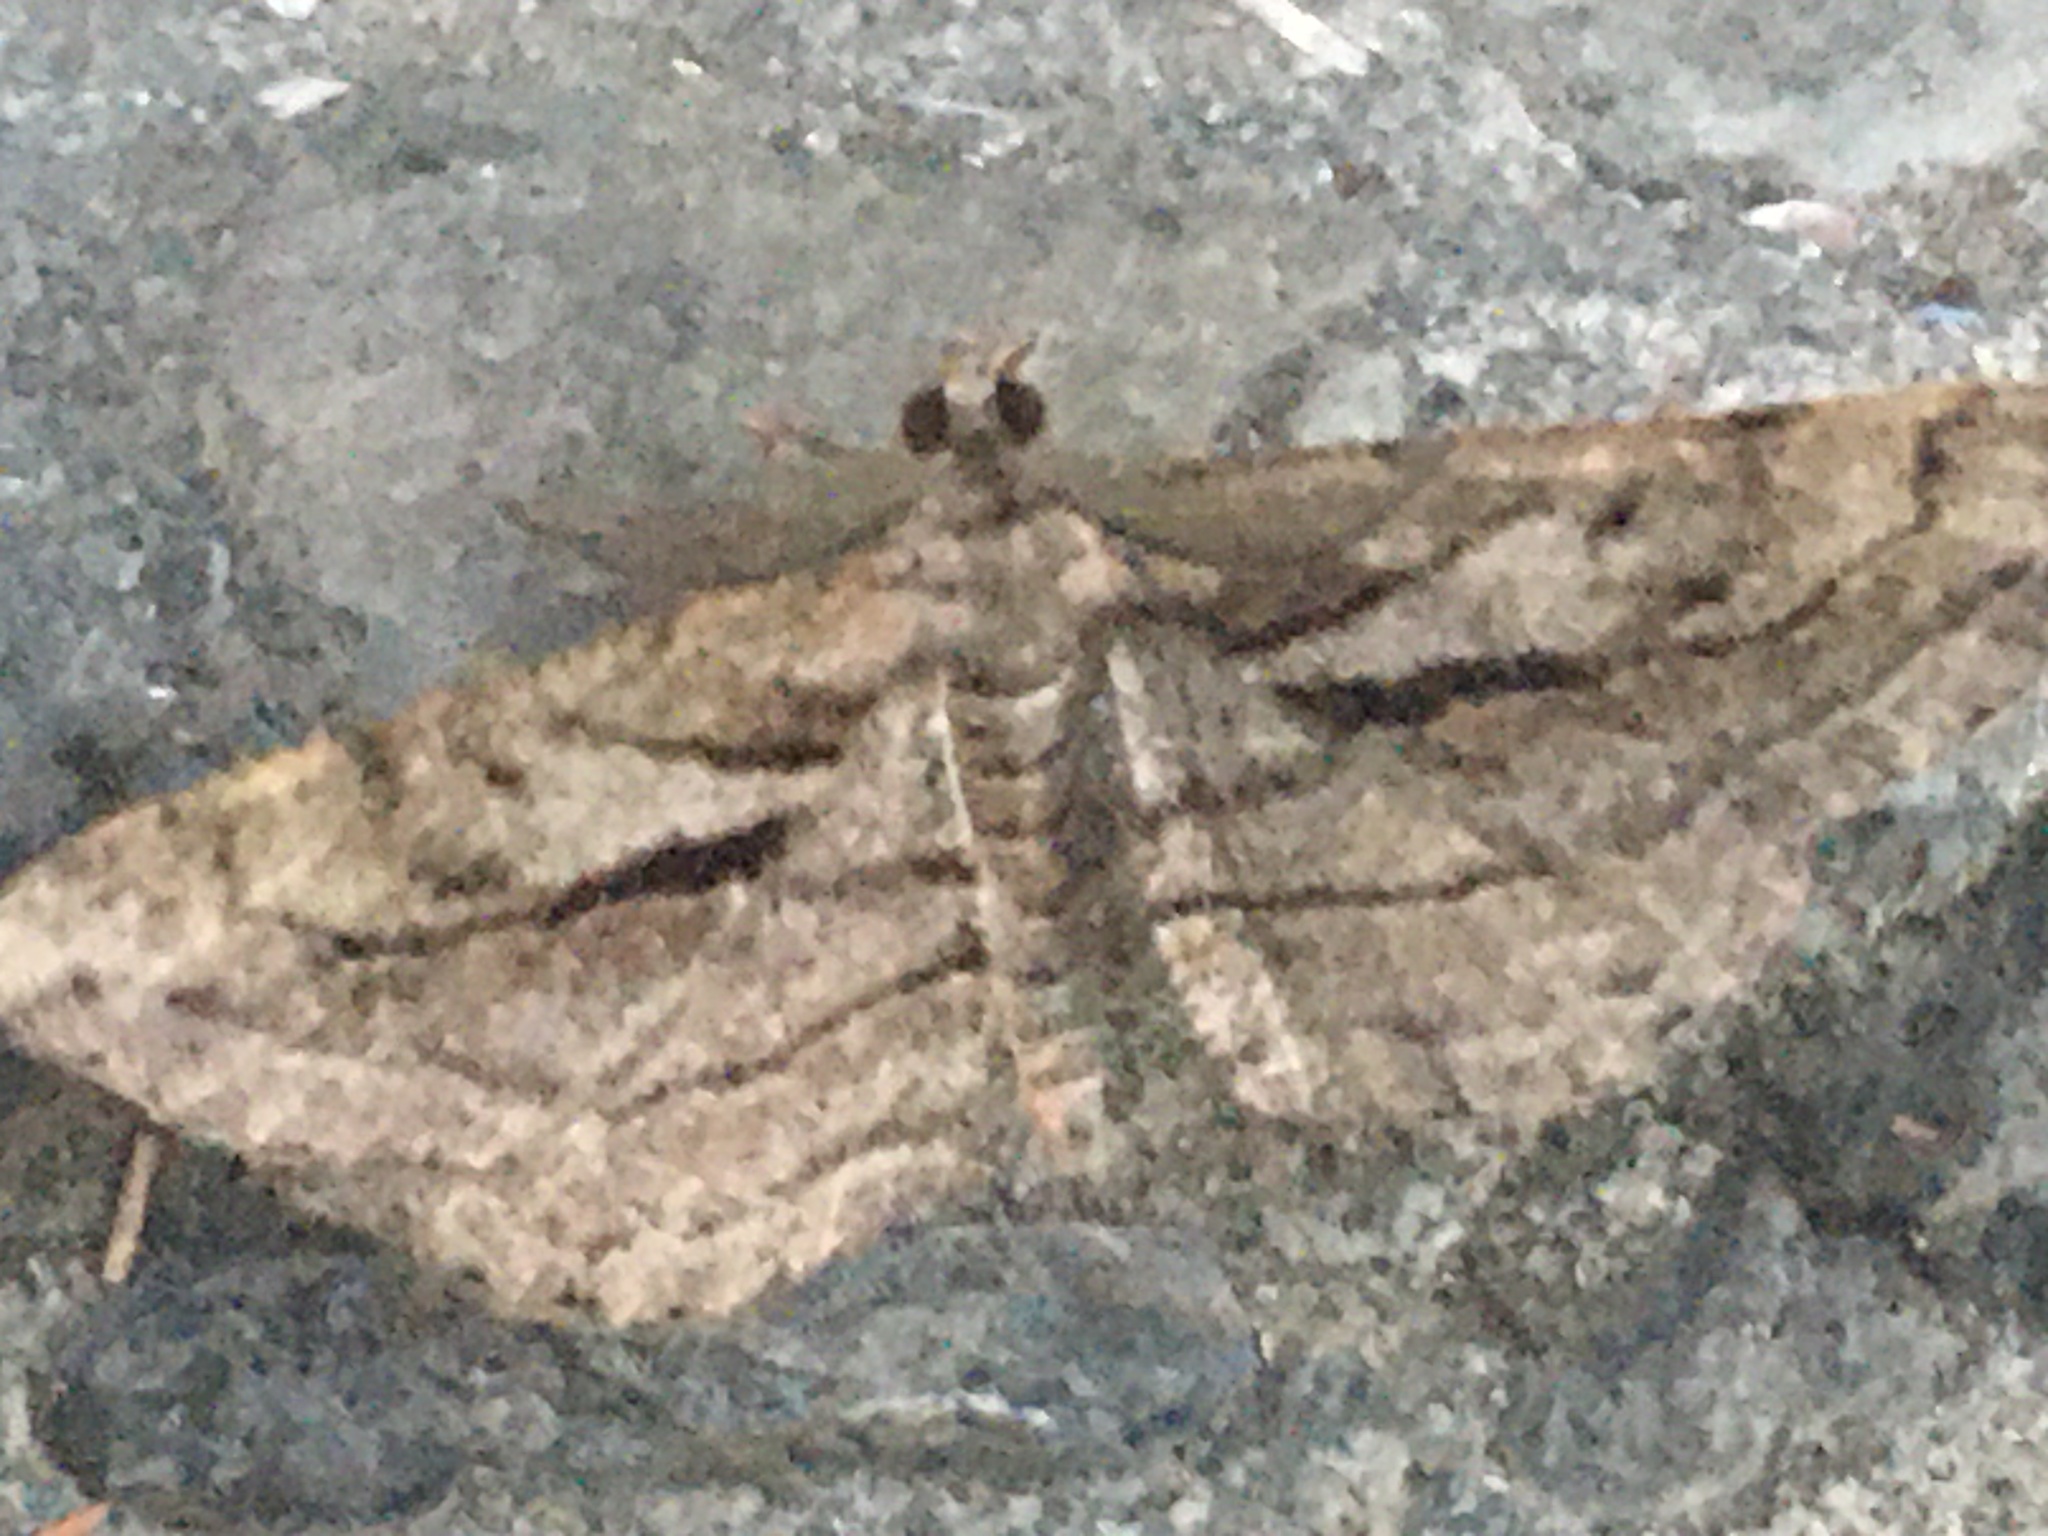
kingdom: Animalia
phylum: Arthropoda
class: Insecta
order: Lepidoptera
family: Geometridae
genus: Peribatodes
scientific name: Peribatodes correptaria
